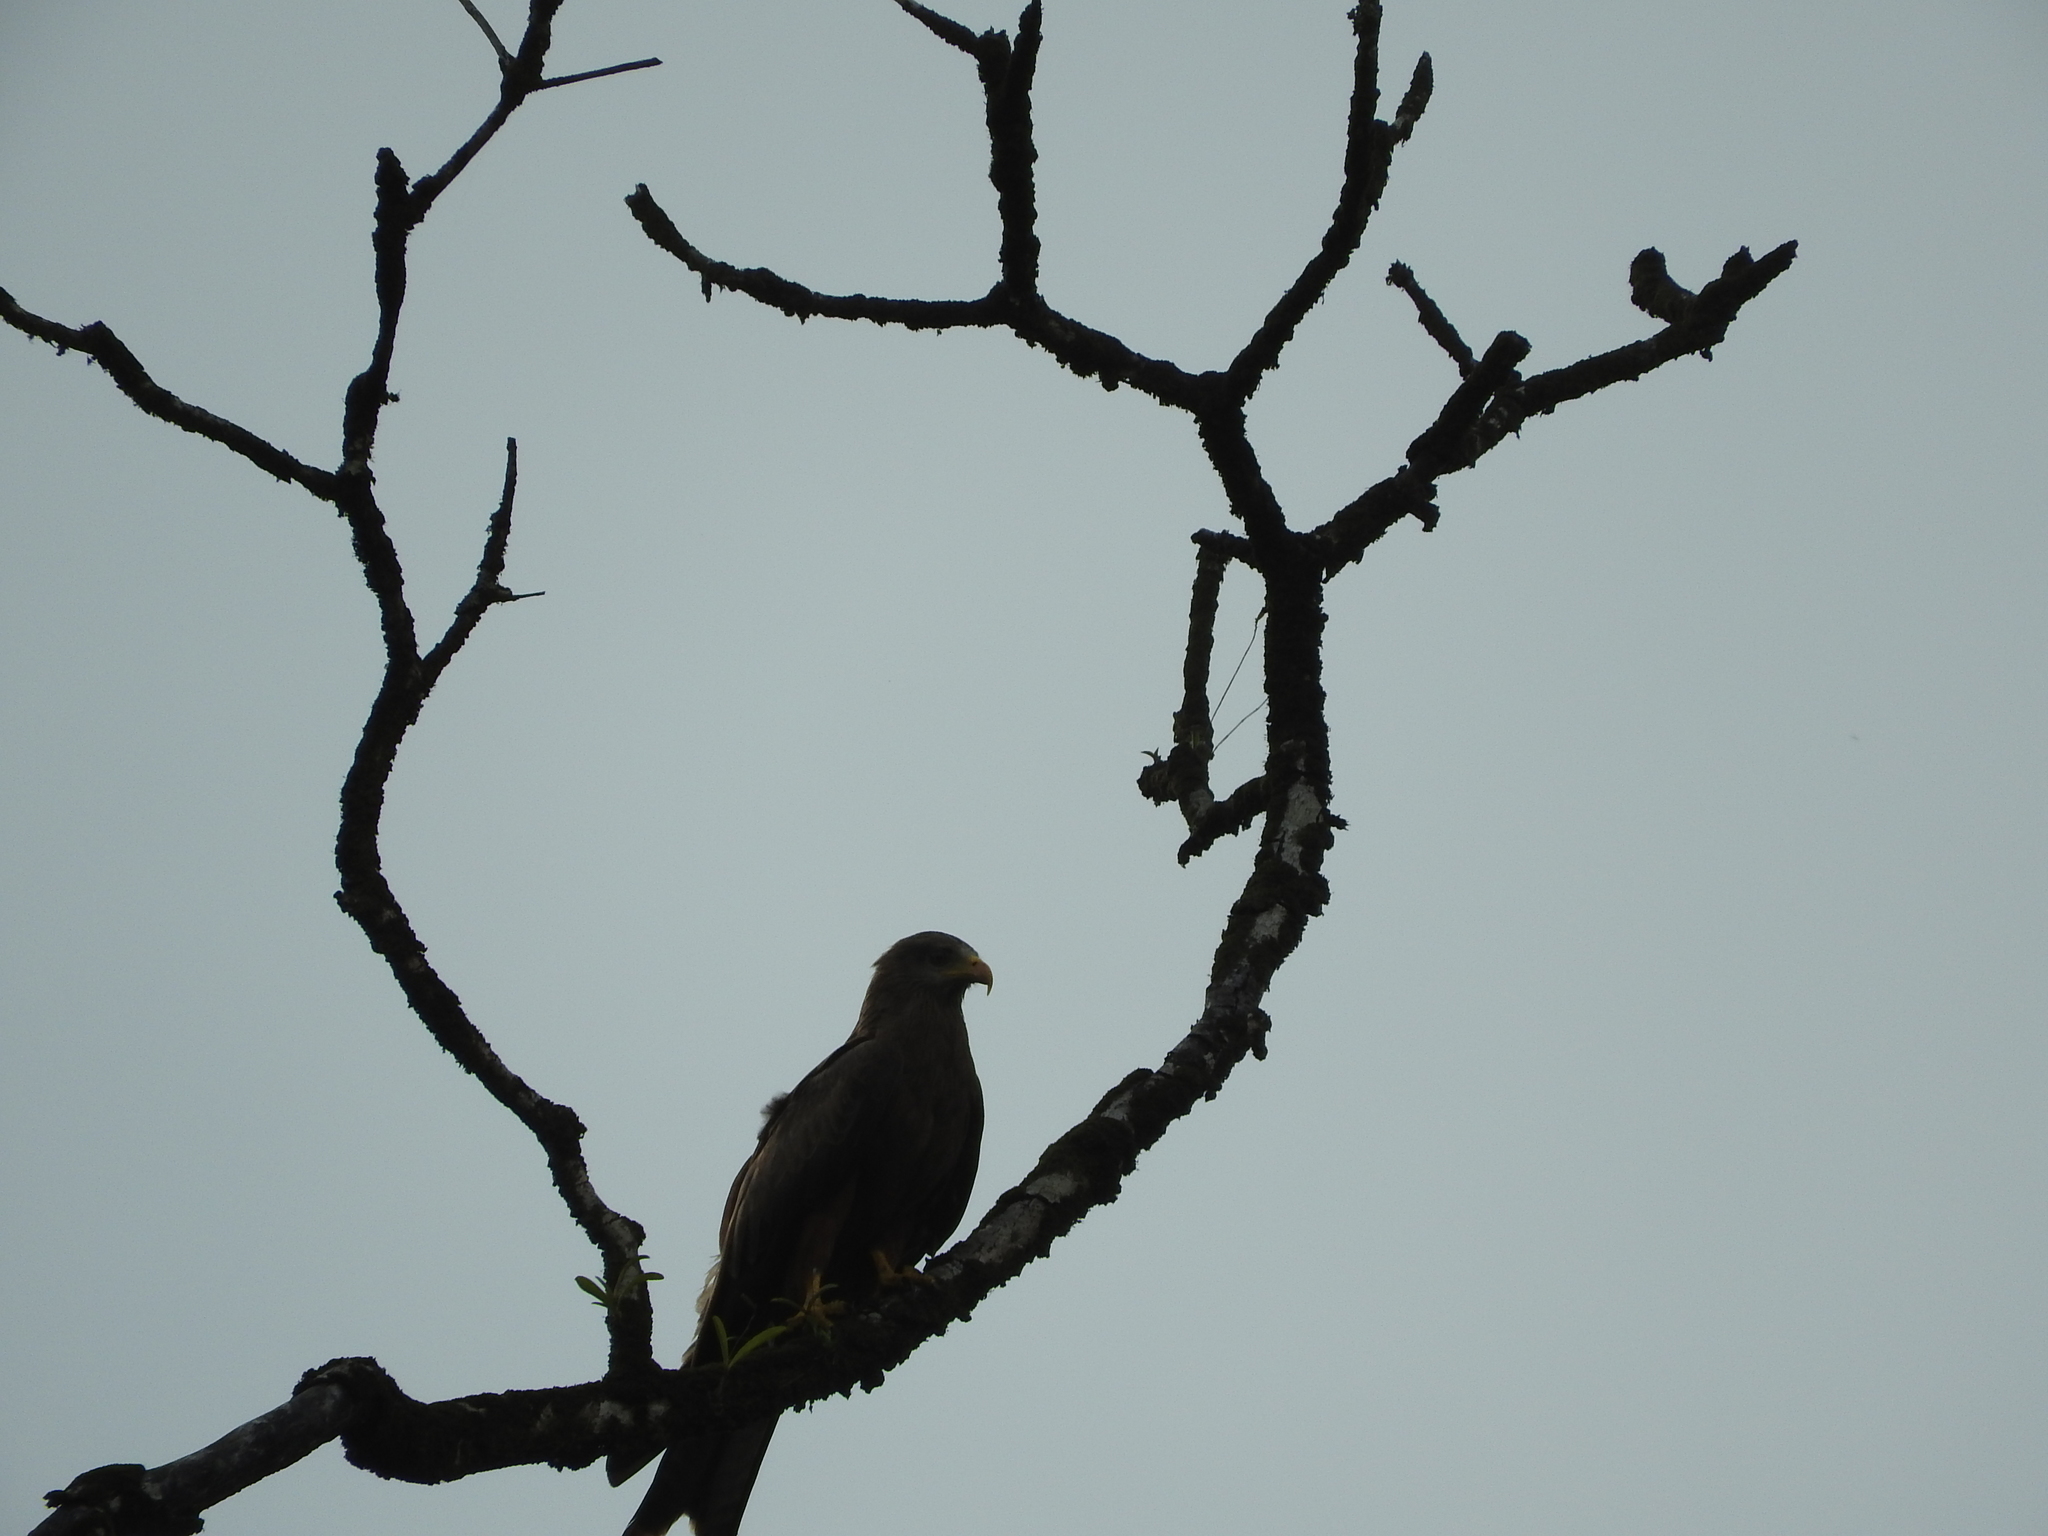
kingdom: Animalia
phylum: Chordata
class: Aves
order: Accipitriformes
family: Accipitridae
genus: Milvus
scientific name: Milvus migrans
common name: Black kite
